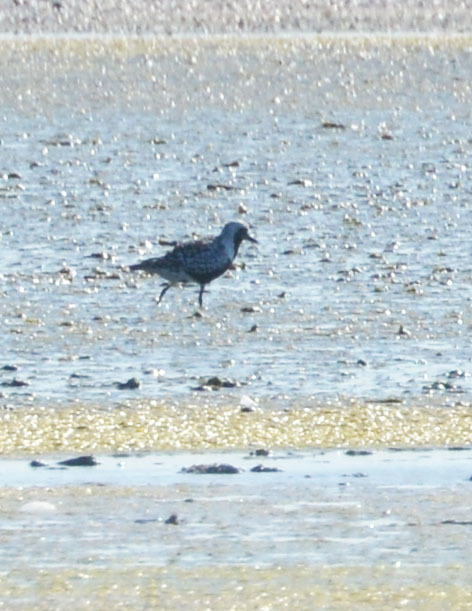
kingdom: Animalia
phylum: Chordata
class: Aves
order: Charadriiformes
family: Charadriidae
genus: Pluvialis
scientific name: Pluvialis squatarola
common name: Grey plover
